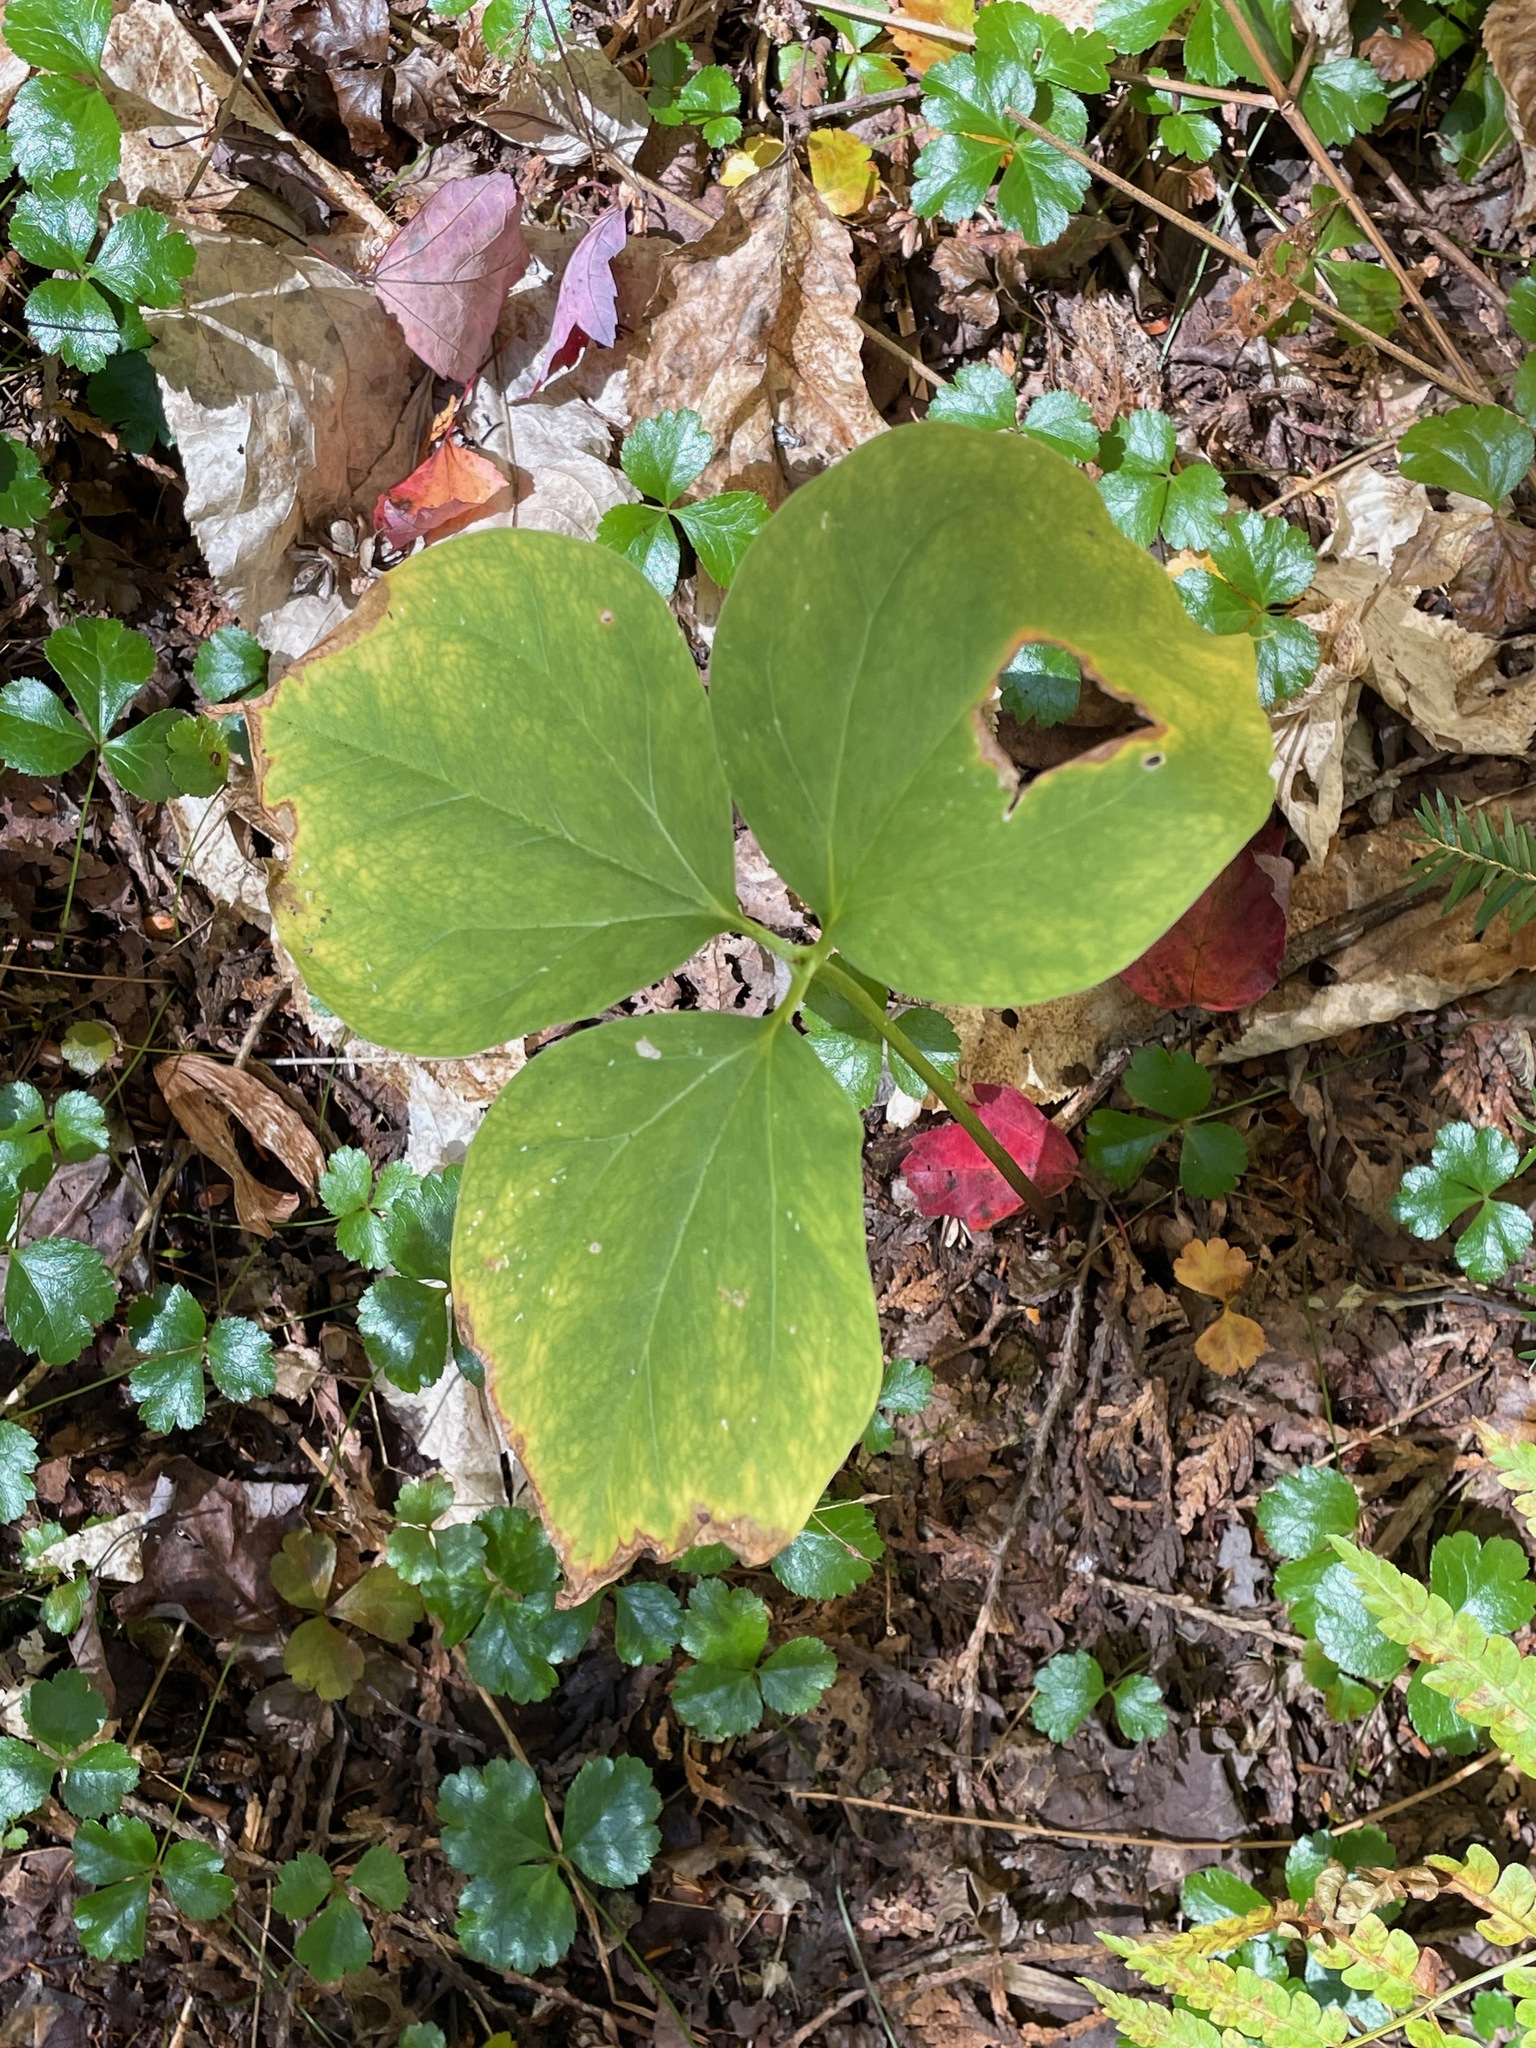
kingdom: Plantae
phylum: Tracheophyta
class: Liliopsida
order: Liliales
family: Melanthiaceae
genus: Trillium
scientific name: Trillium undulatum
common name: Paint trillium
